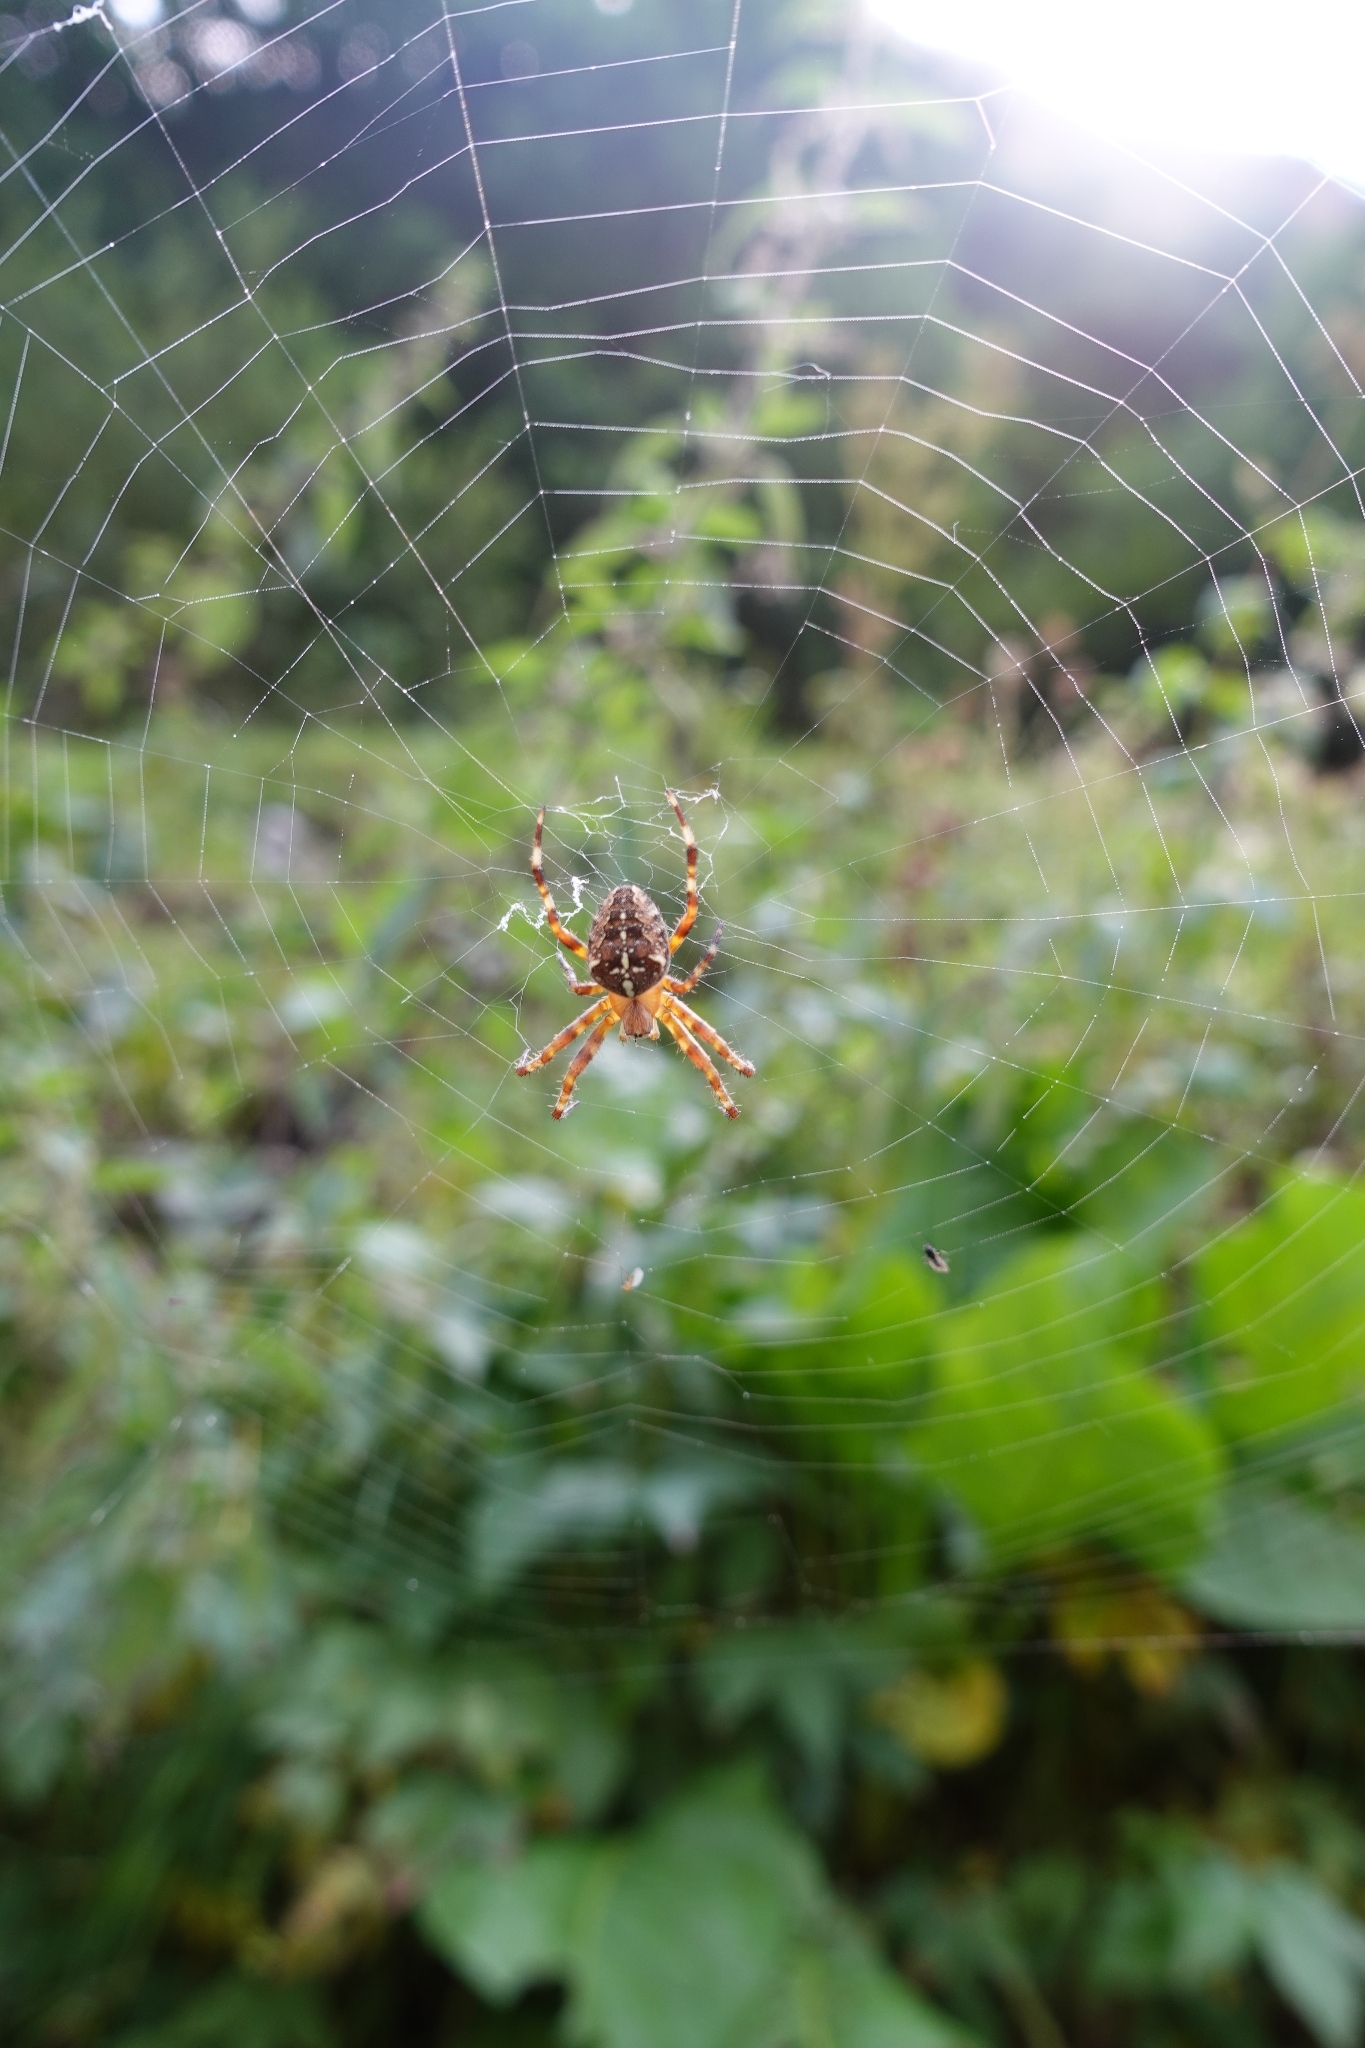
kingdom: Animalia
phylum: Arthropoda
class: Arachnida
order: Araneae
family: Araneidae
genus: Araneus
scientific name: Araneus diadematus
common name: Cross orbweaver
